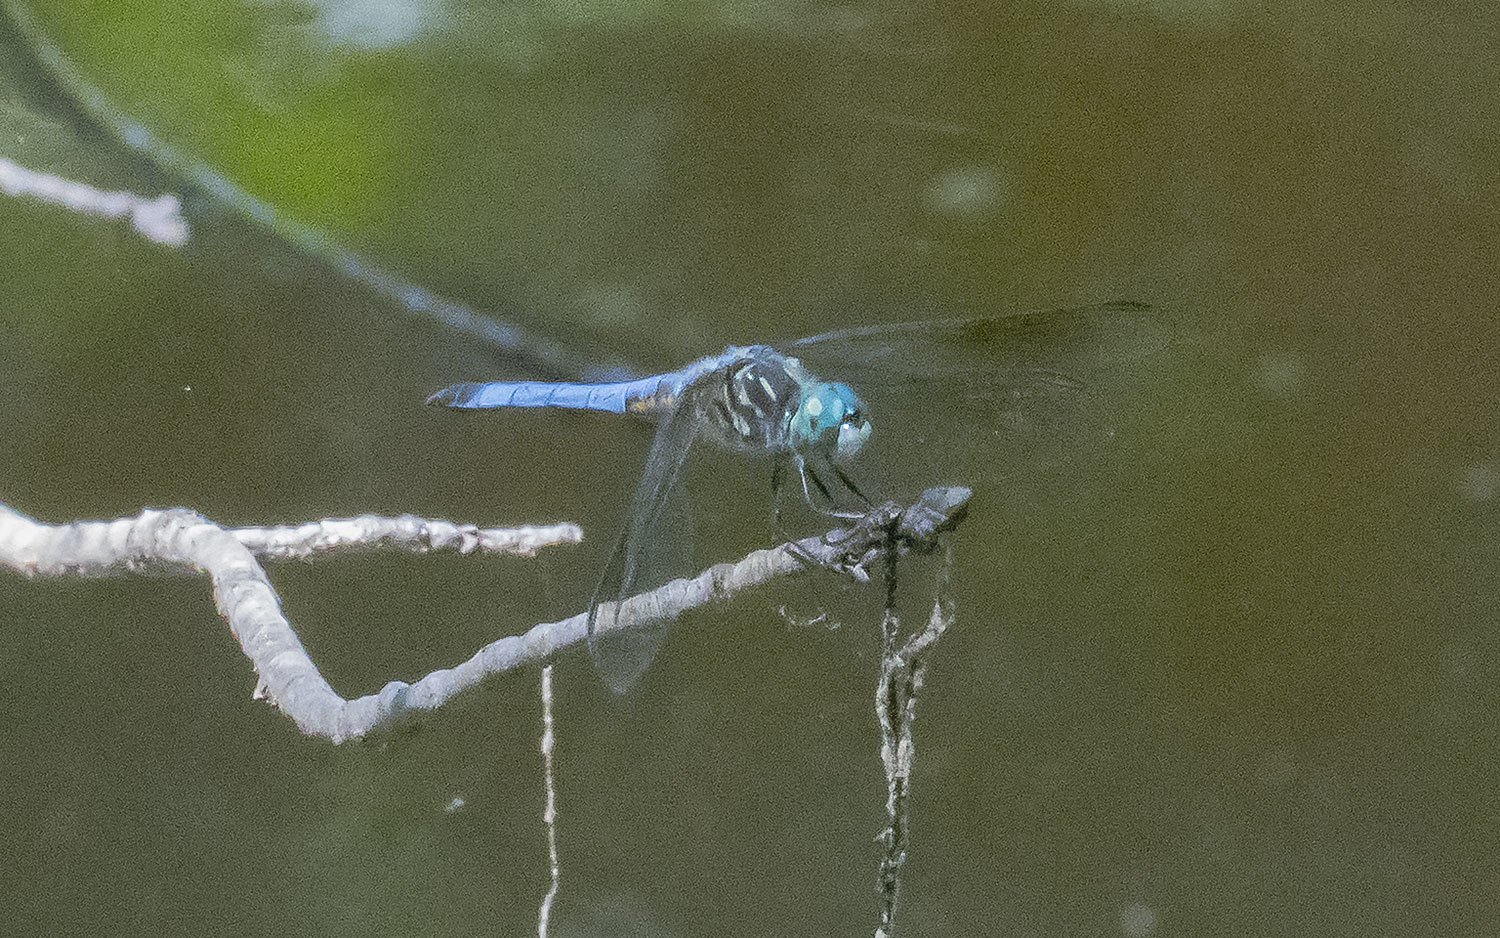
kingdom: Animalia
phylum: Arthropoda
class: Insecta
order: Odonata
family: Libellulidae
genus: Pachydiplax
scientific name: Pachydiplax longipennis
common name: Blue dasher
